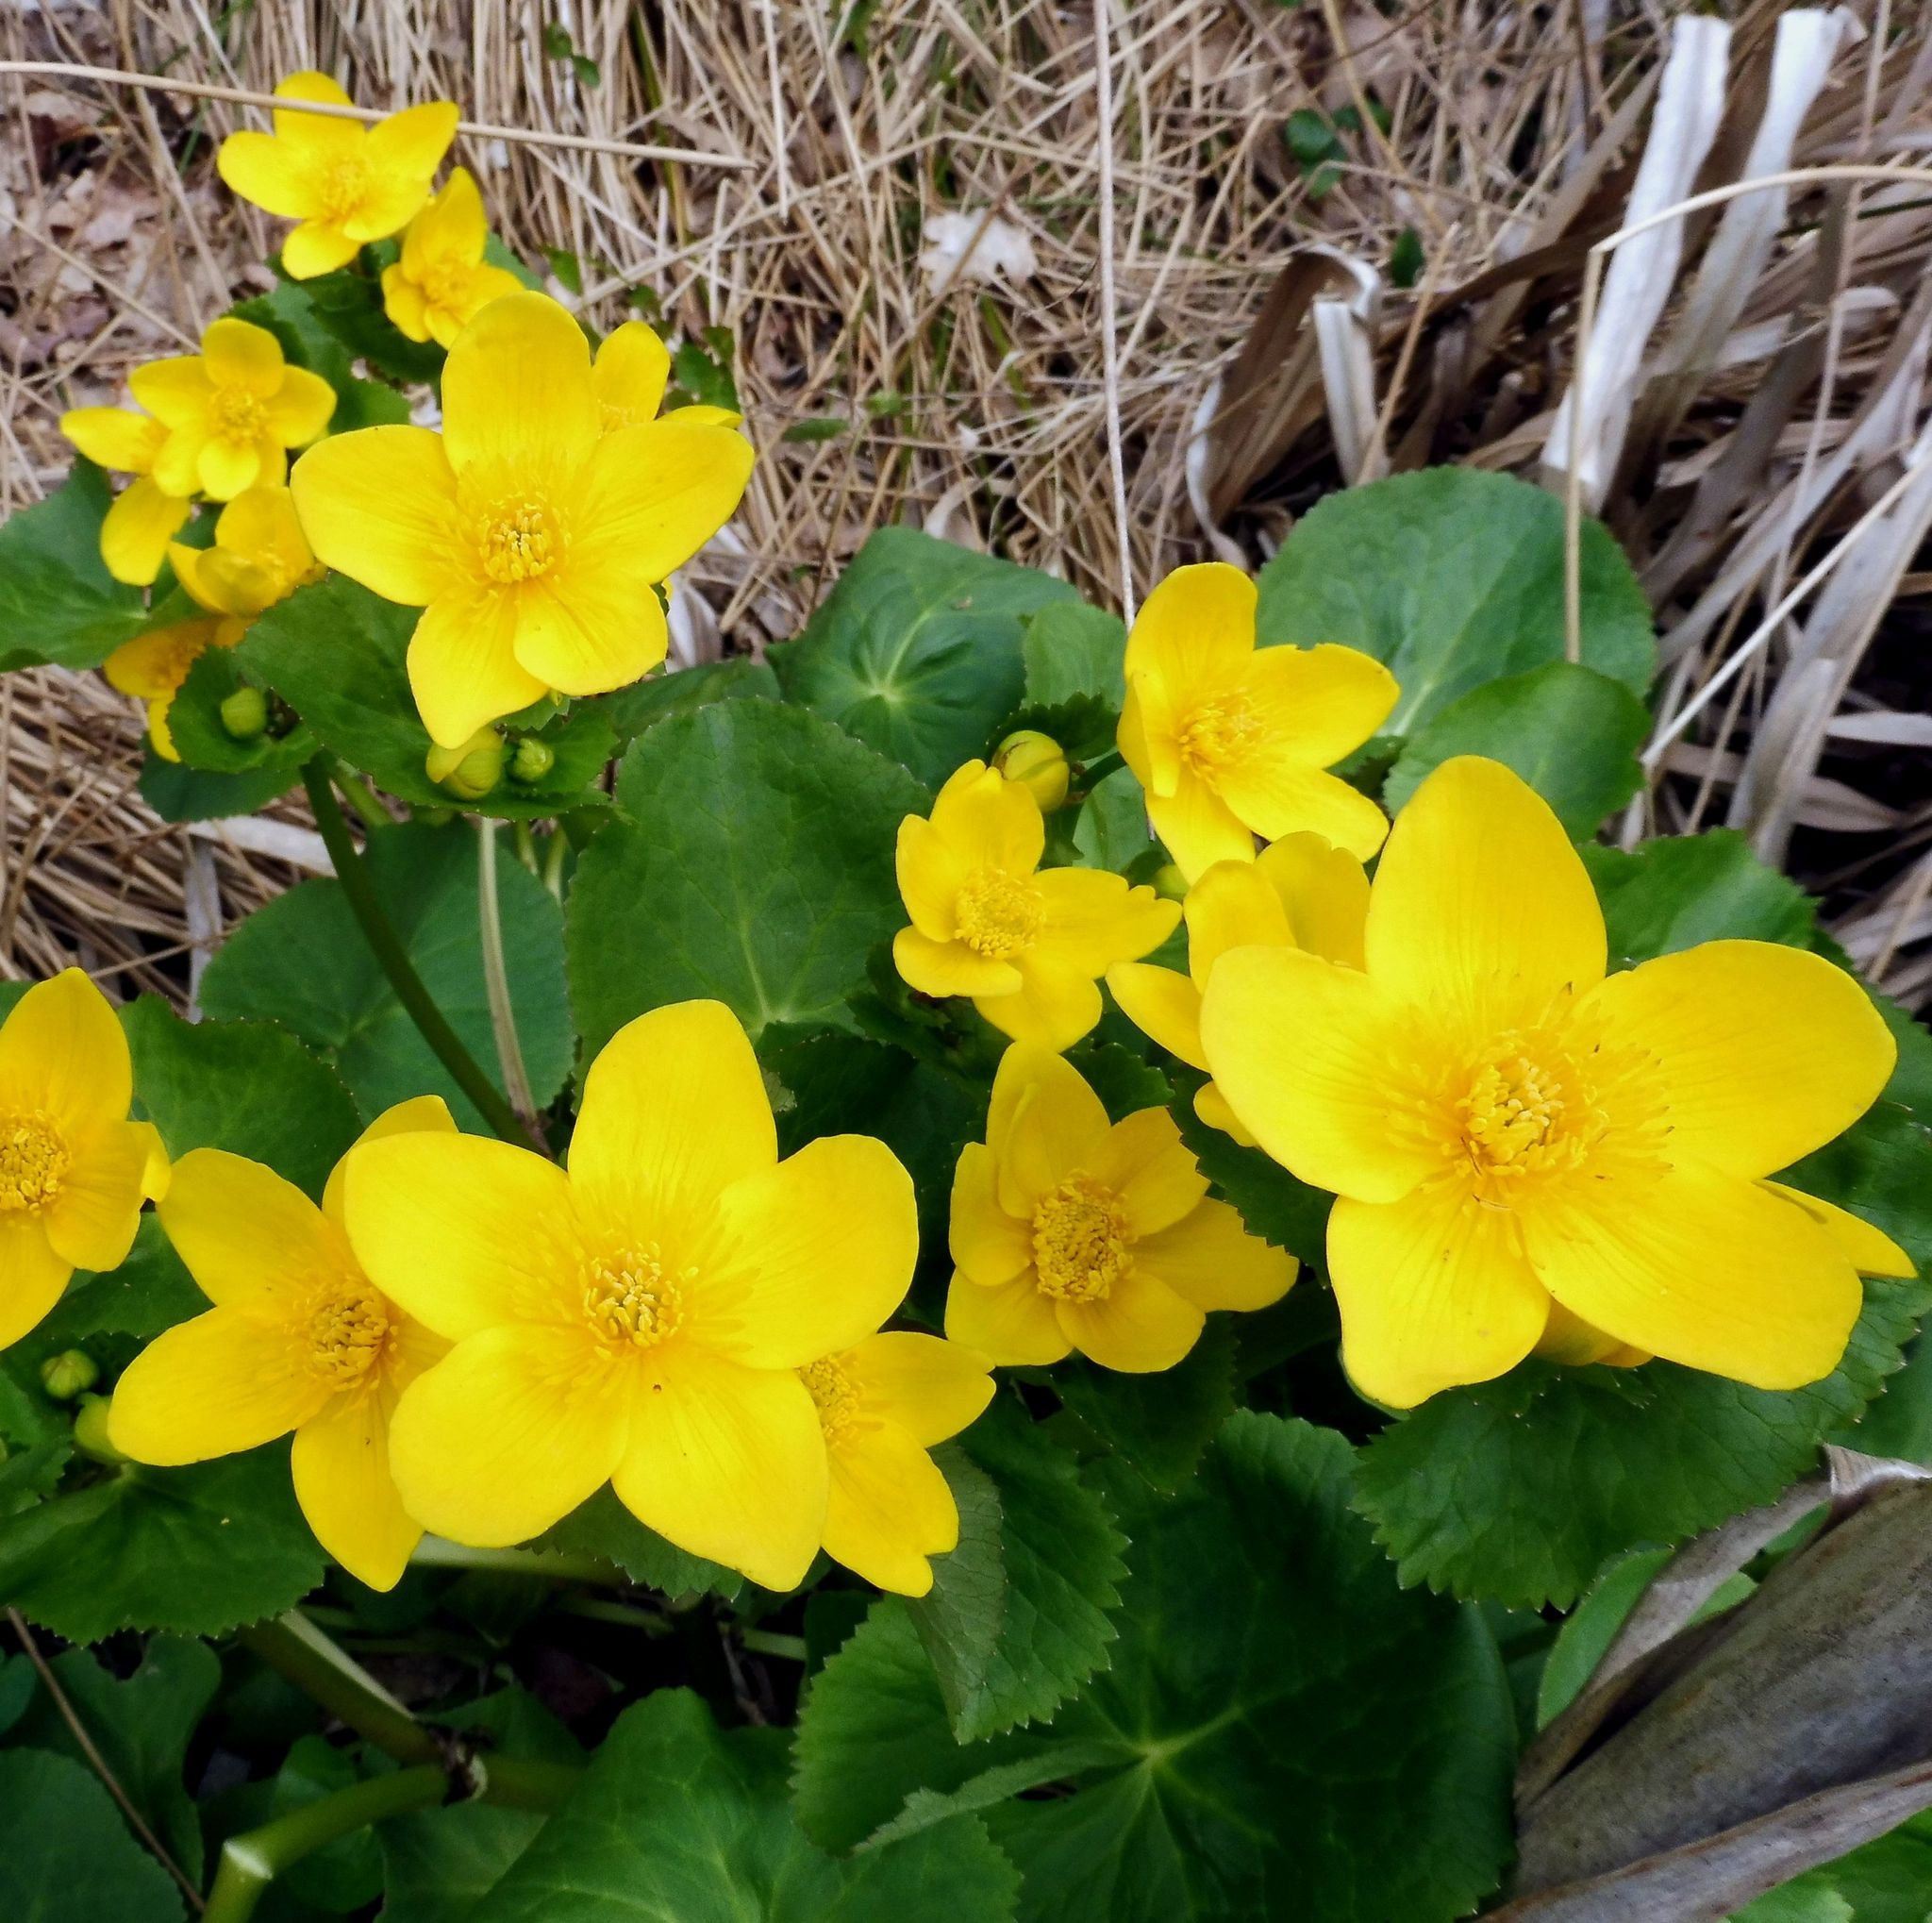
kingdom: Plantae
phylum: Tracheophyta
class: Magnoliopsida
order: Ranunculales
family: Ranunculaceae
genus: Caltha
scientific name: Caltha palustris
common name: Marsh marigold
